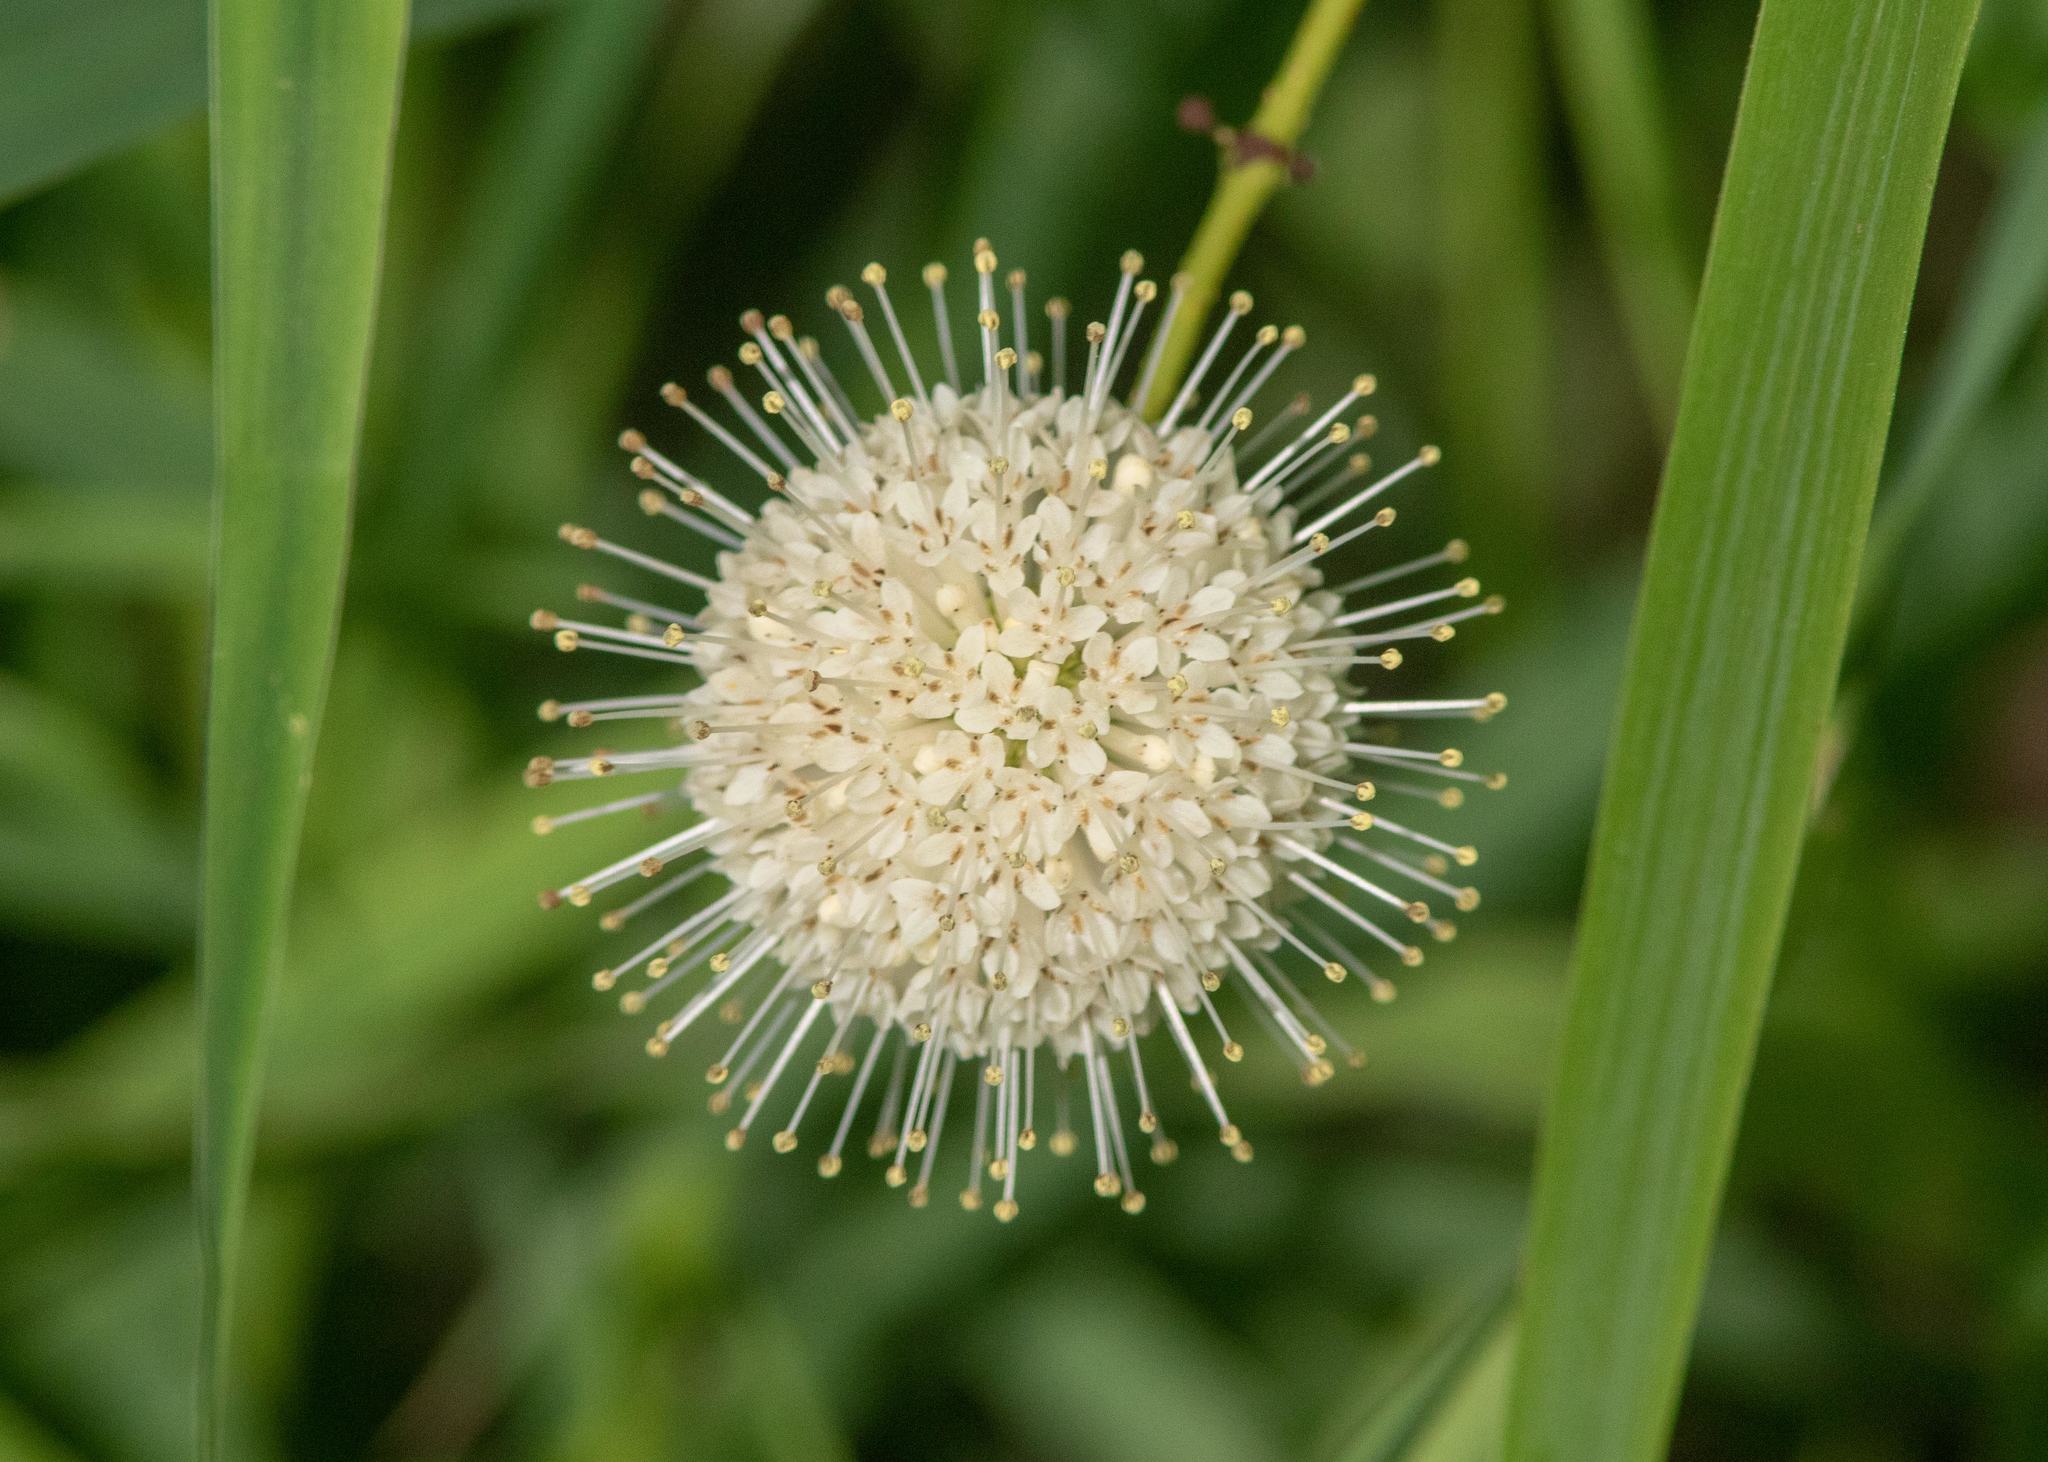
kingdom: Plantae
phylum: Tracheophyta
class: Magnoliopsida
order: Gentianales
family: Rubiaceae
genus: Cephalanthus
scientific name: Cephalanthus occidentalis
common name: Button-willow
